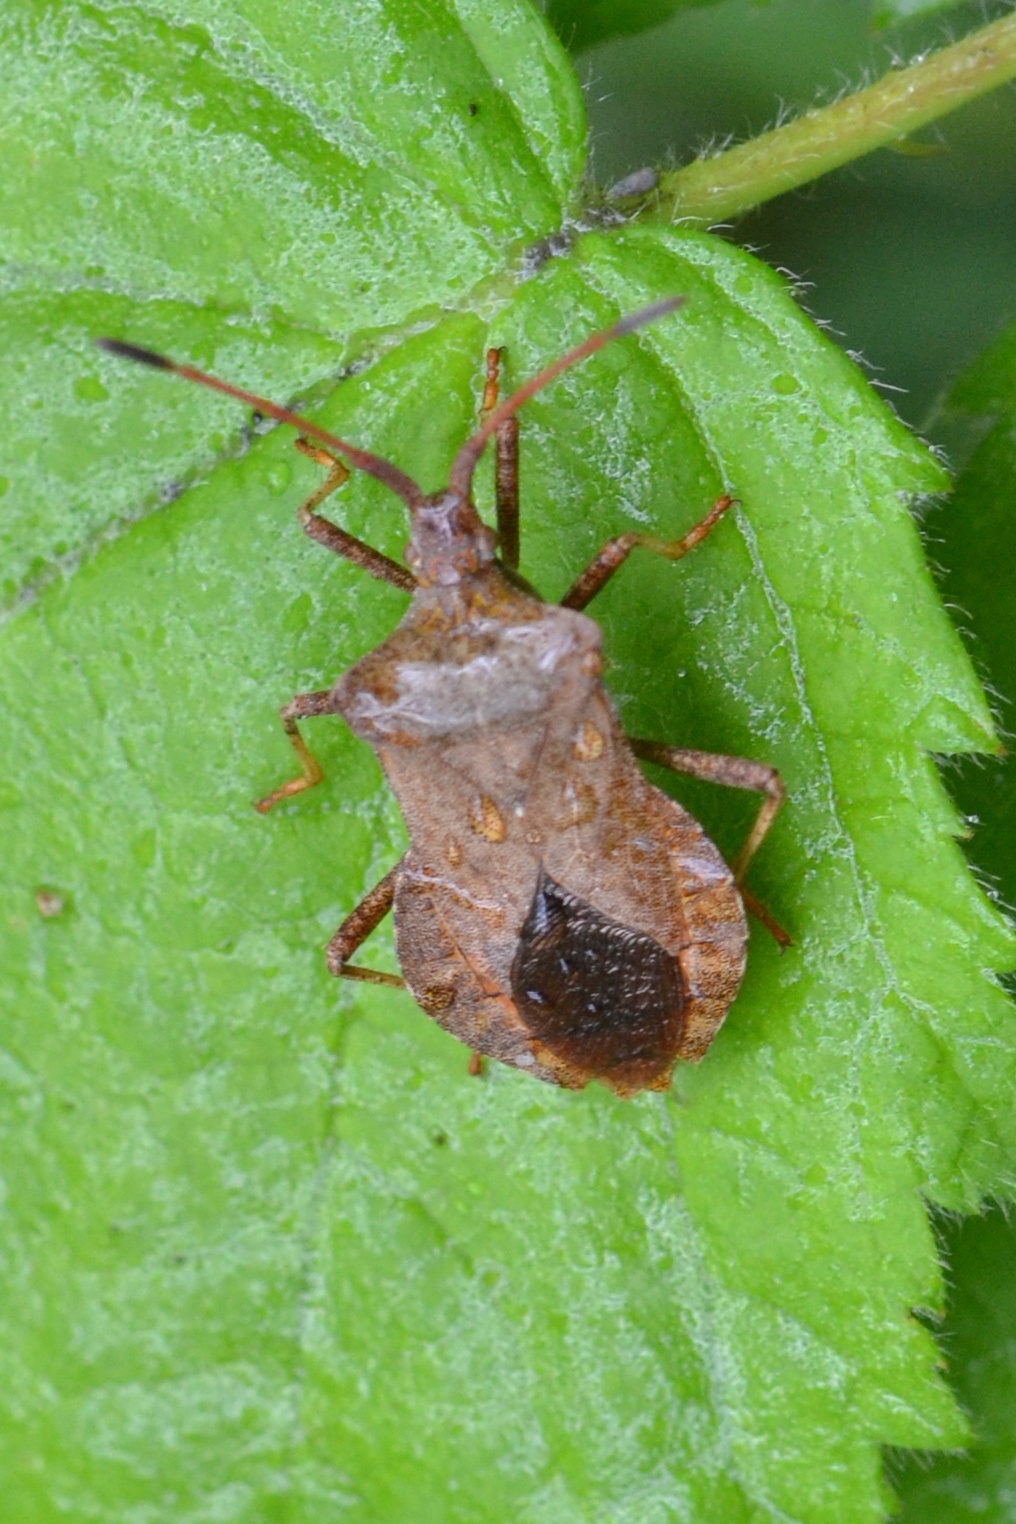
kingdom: Animalia
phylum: Arthropoda
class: Insecta
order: Hemiptera
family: Coreidae
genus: Coreus
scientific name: Coreus marginatus
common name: Dock bug
